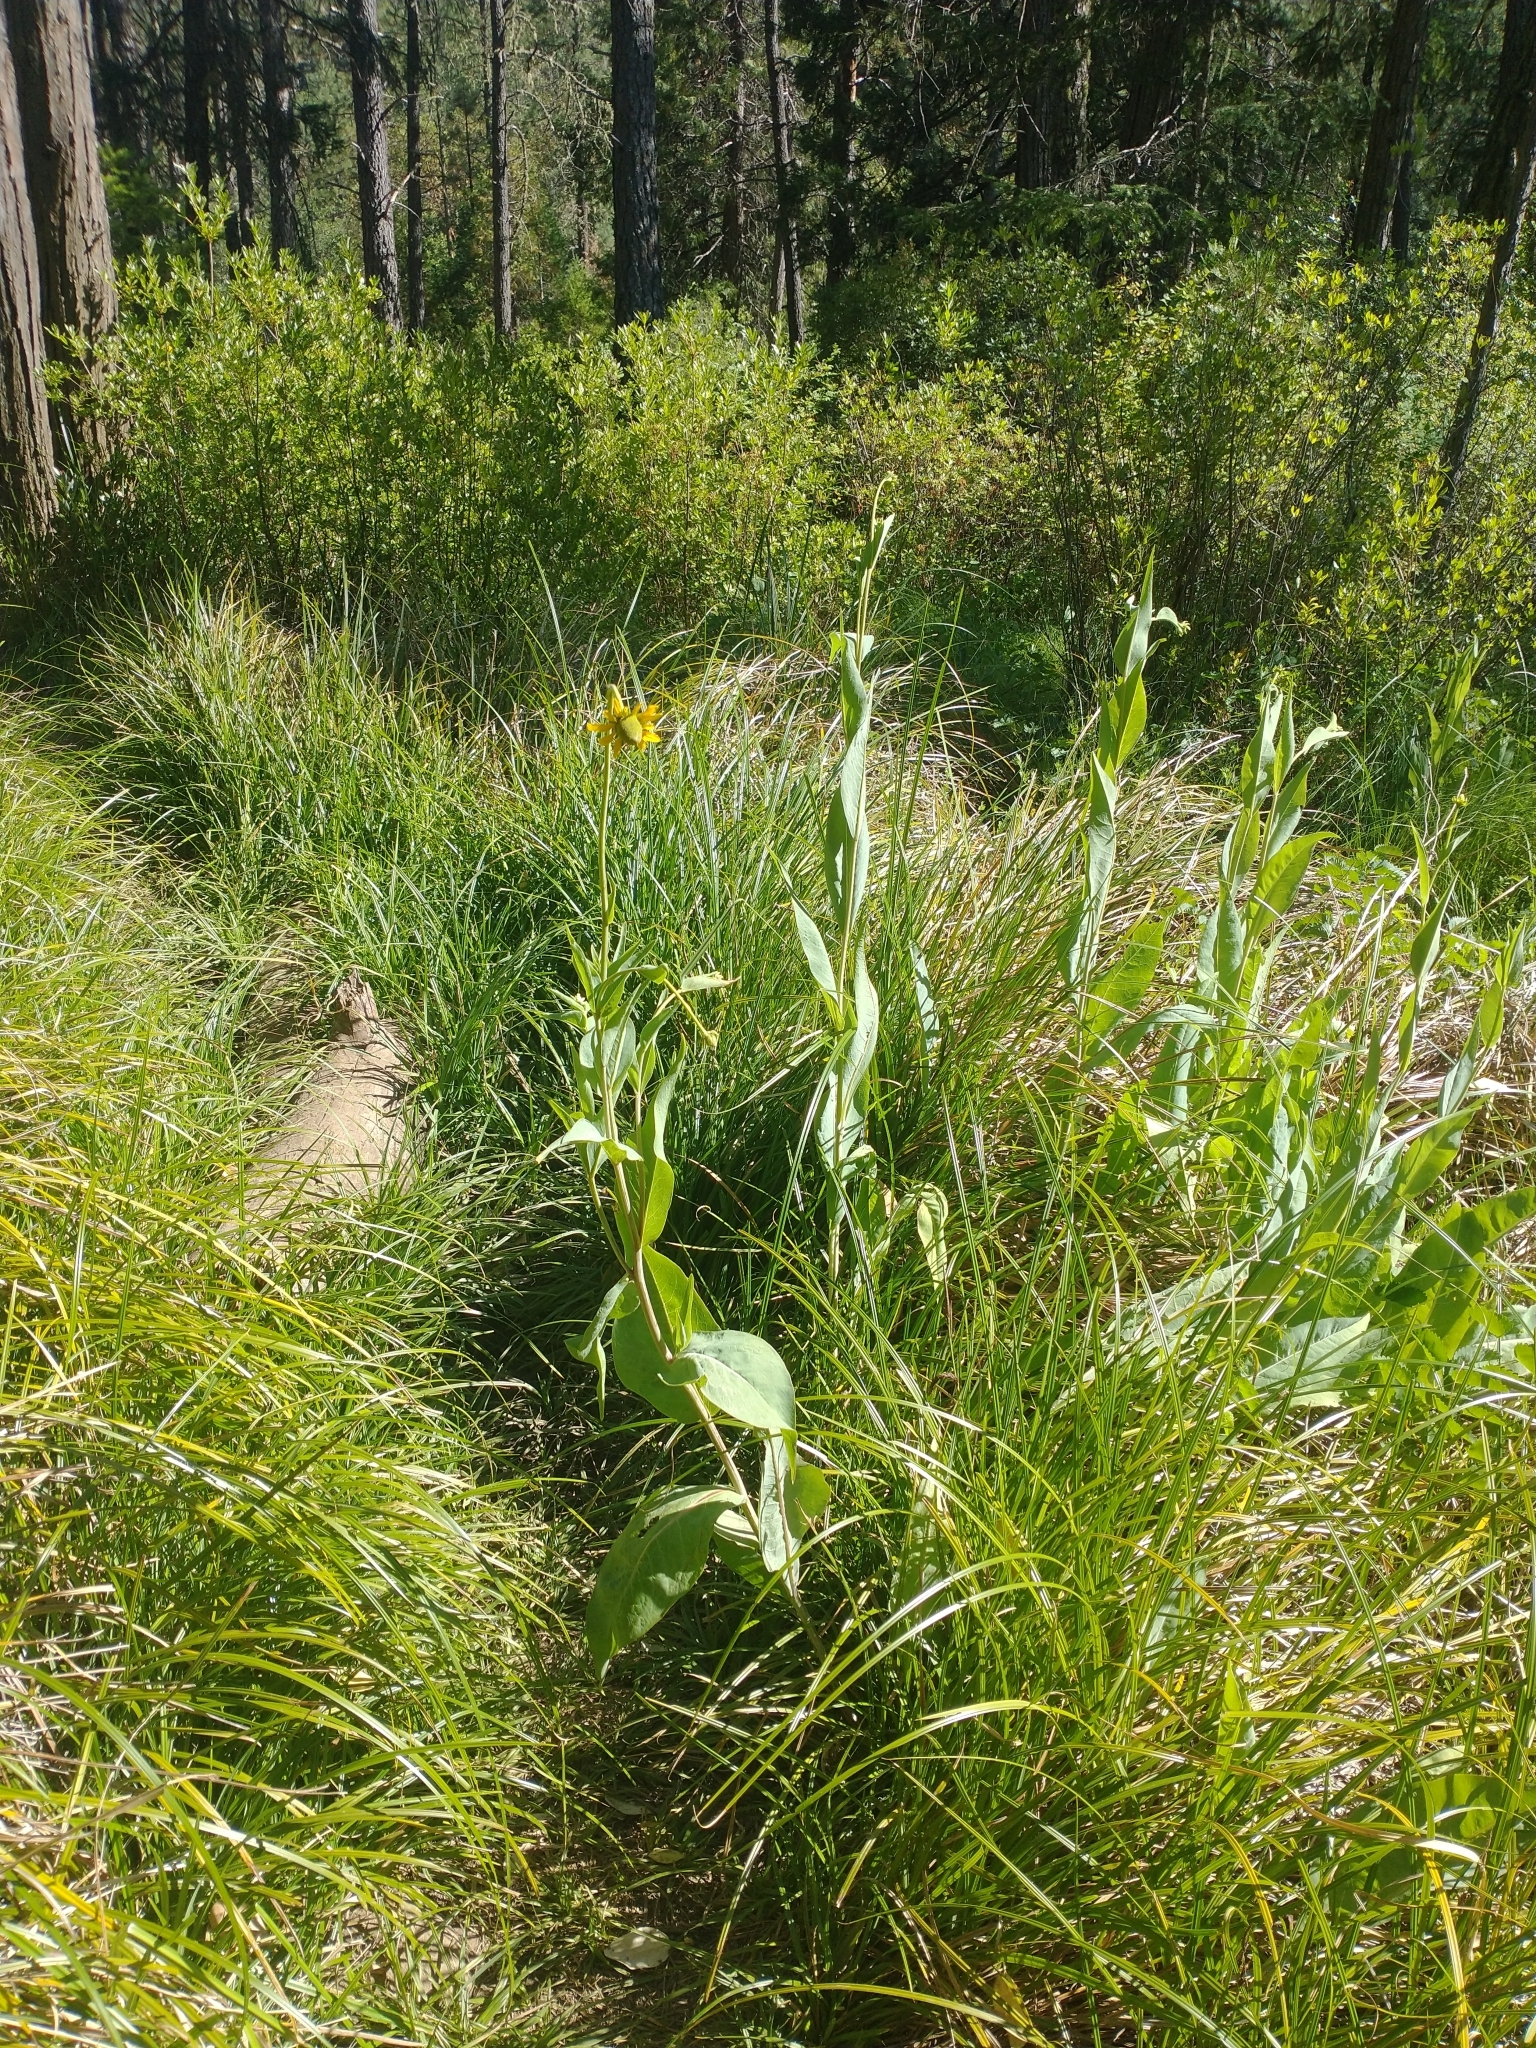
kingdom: Plantae
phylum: Tracheophyta
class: Magnoliopsida
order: Asterales
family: Asteraceae
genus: Rudbeckia
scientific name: Rudbeckia glaucescens
